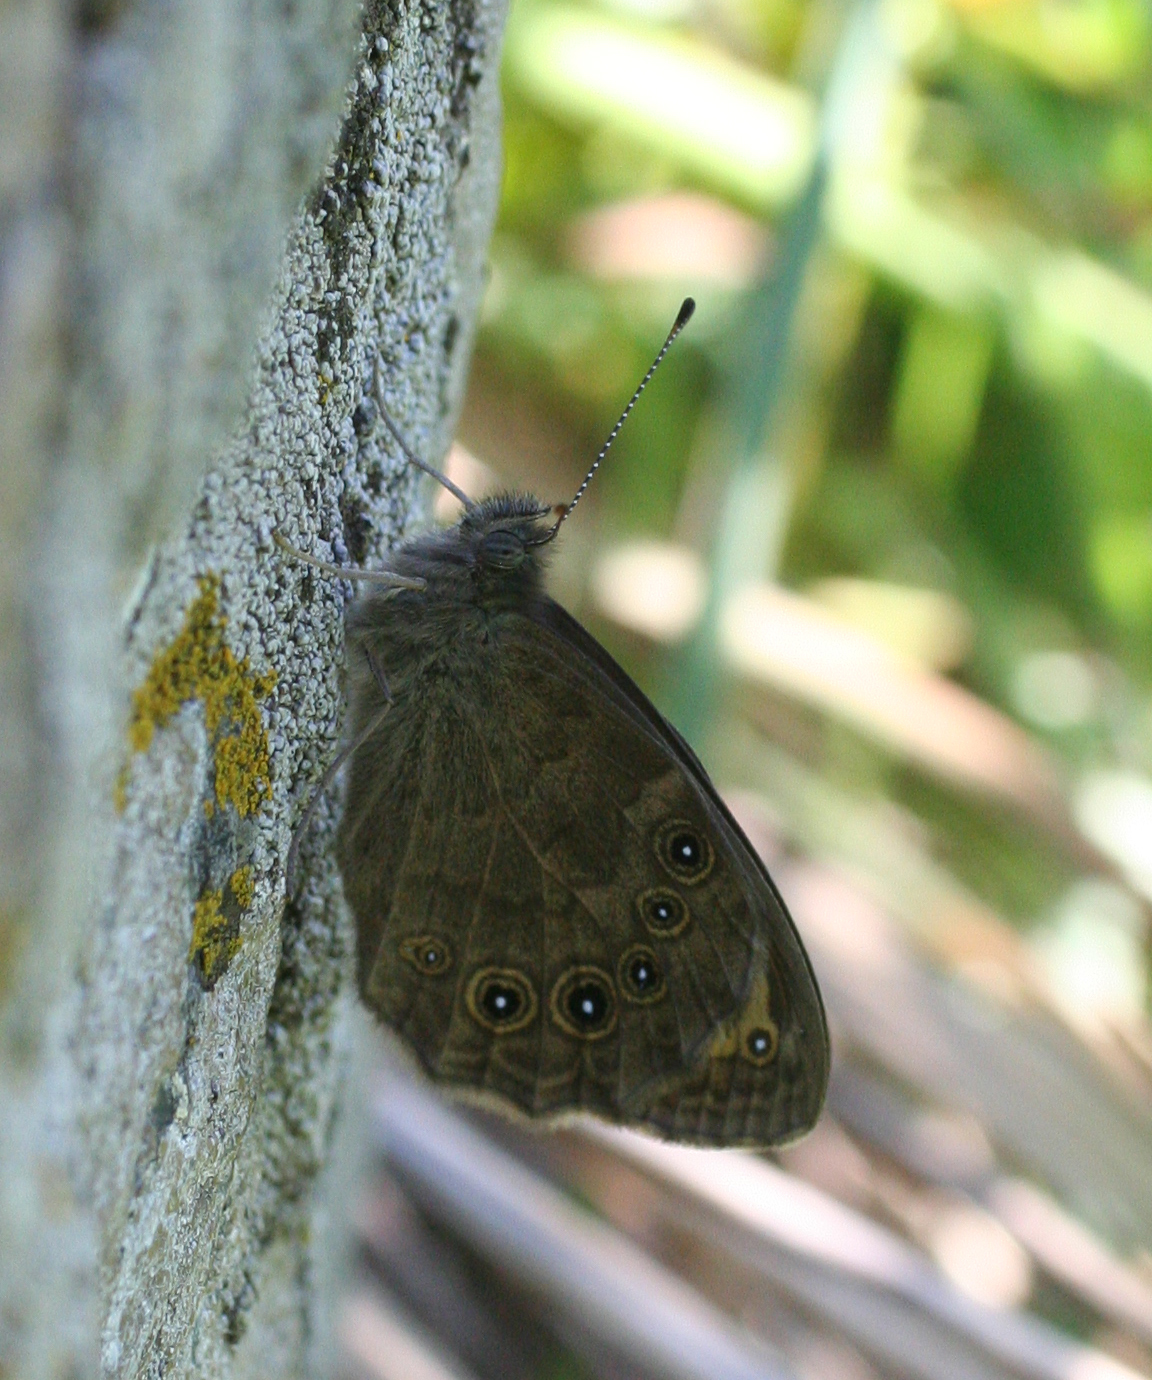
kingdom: Animalia
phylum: Arthropoda
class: Insecta
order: Lepidoptera
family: Nymphalidae
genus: Pararge
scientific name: Pararge Lasiommata maera
